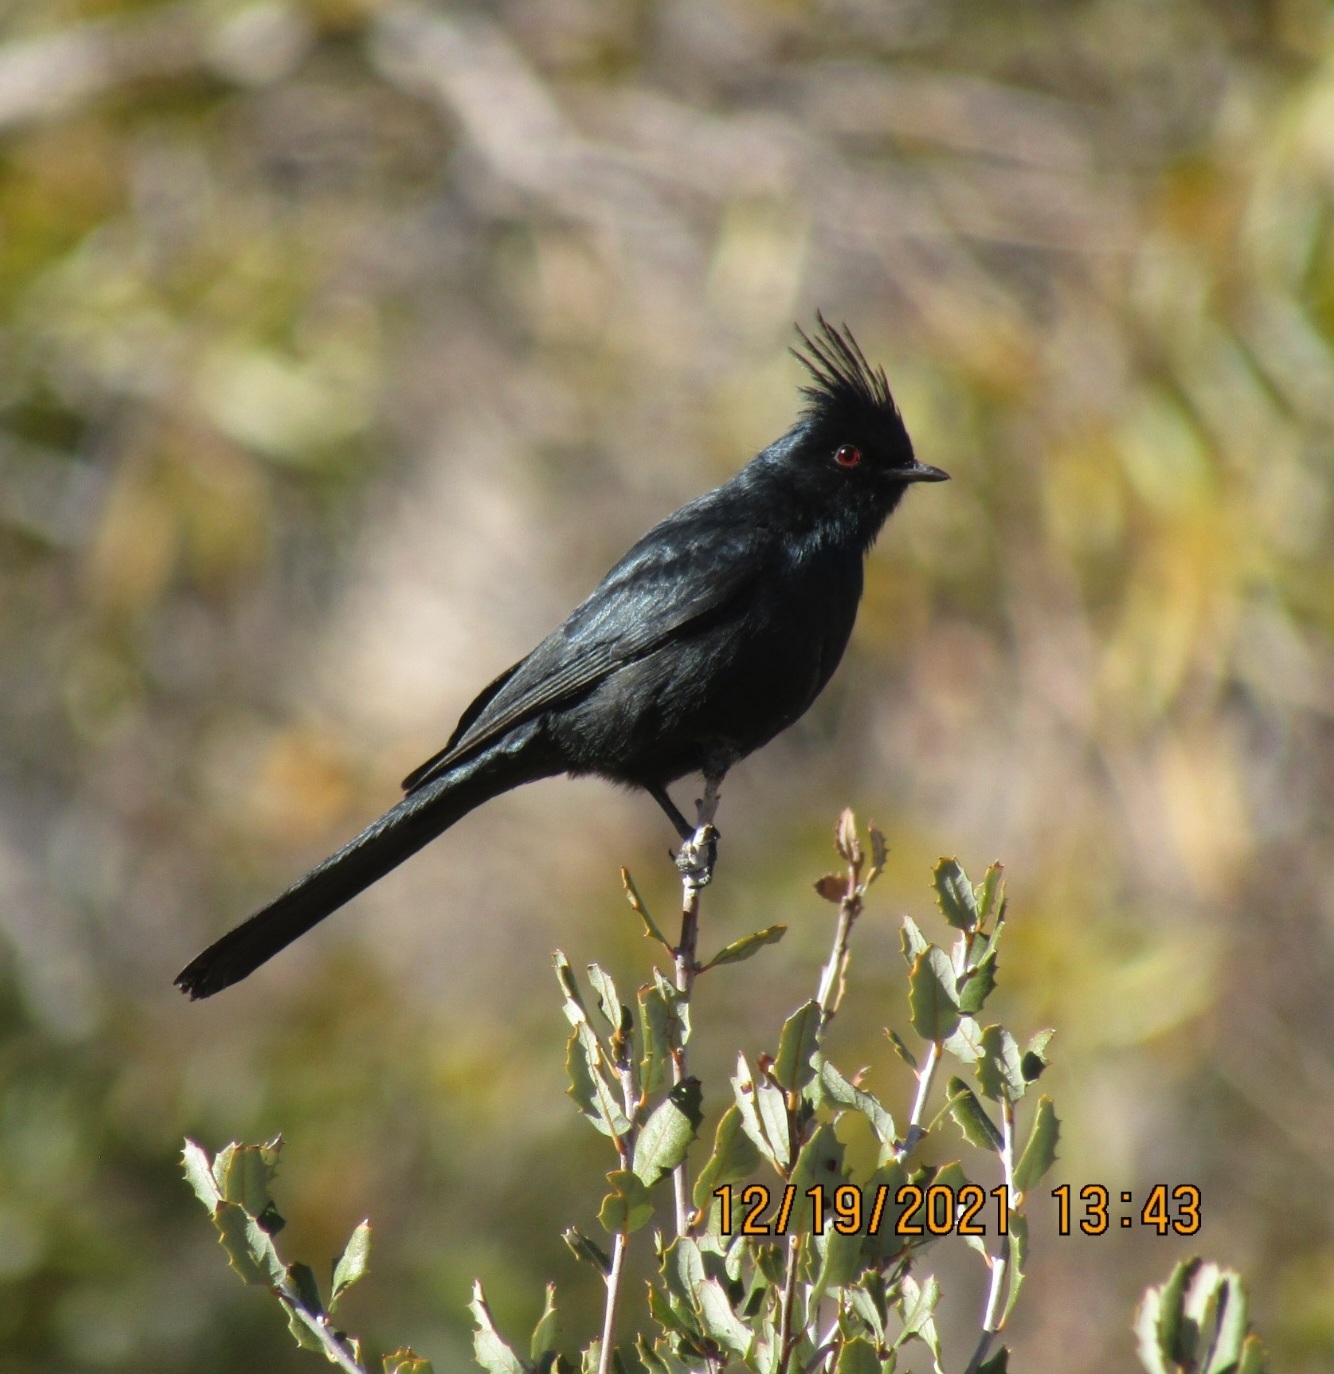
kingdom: Animalia
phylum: Chordata
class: Aves
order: Passeriformes
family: Ptilogonatidae
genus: Phainopepla
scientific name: Phainopepla nitens
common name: Phainopepla
